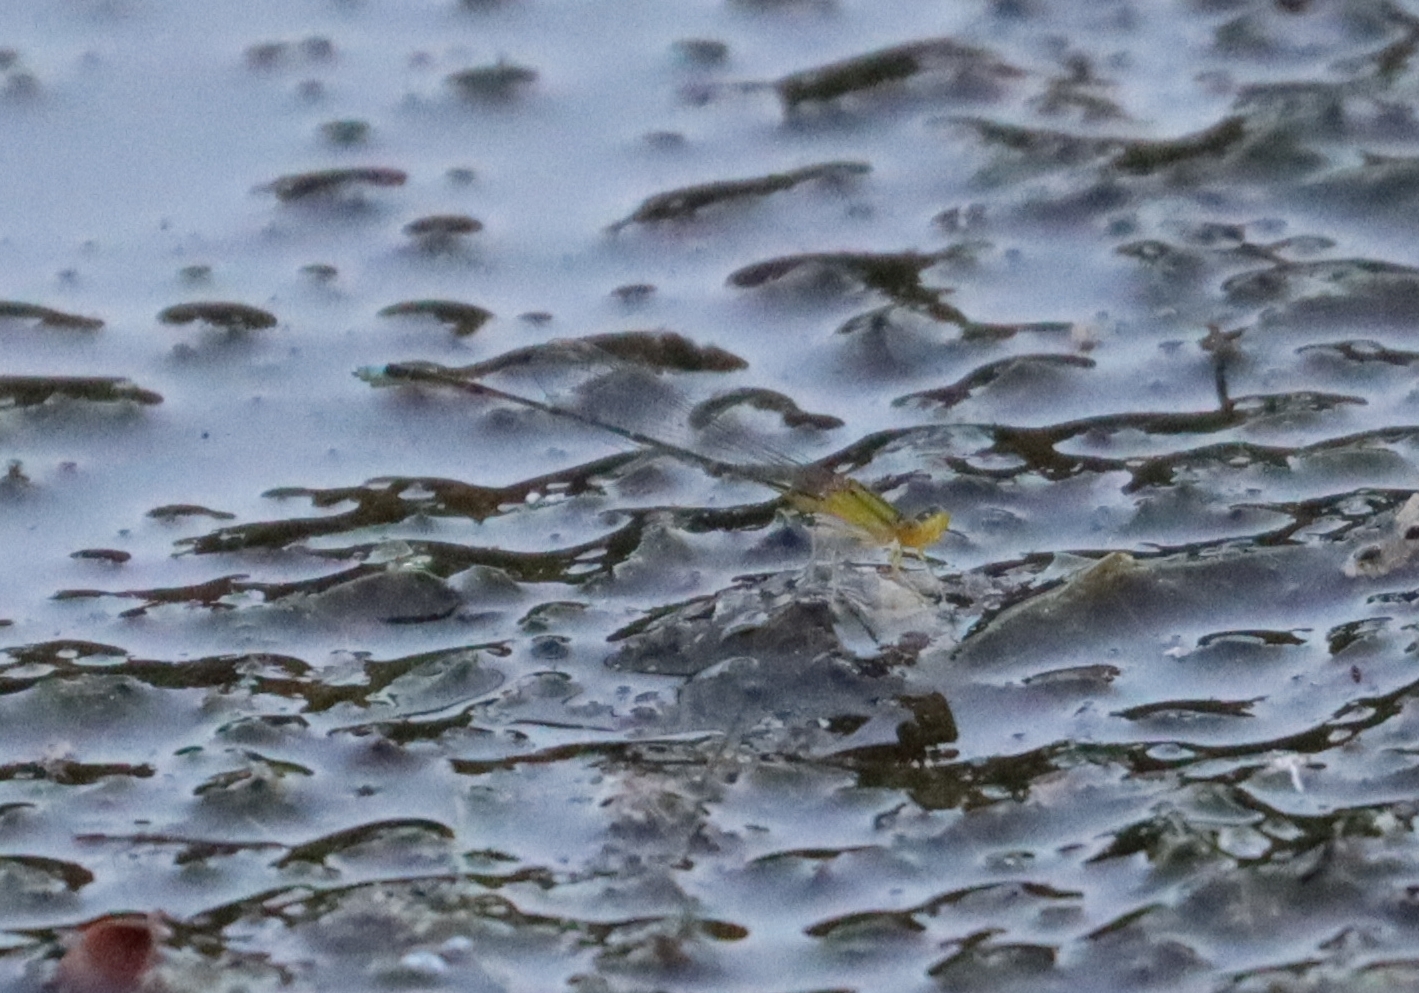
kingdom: Animalia
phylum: Arthropoda
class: Insecta
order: Odonata
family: Coenagrionidae
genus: Enallagma
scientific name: Enallagma vesperum
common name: Vesper bluet
